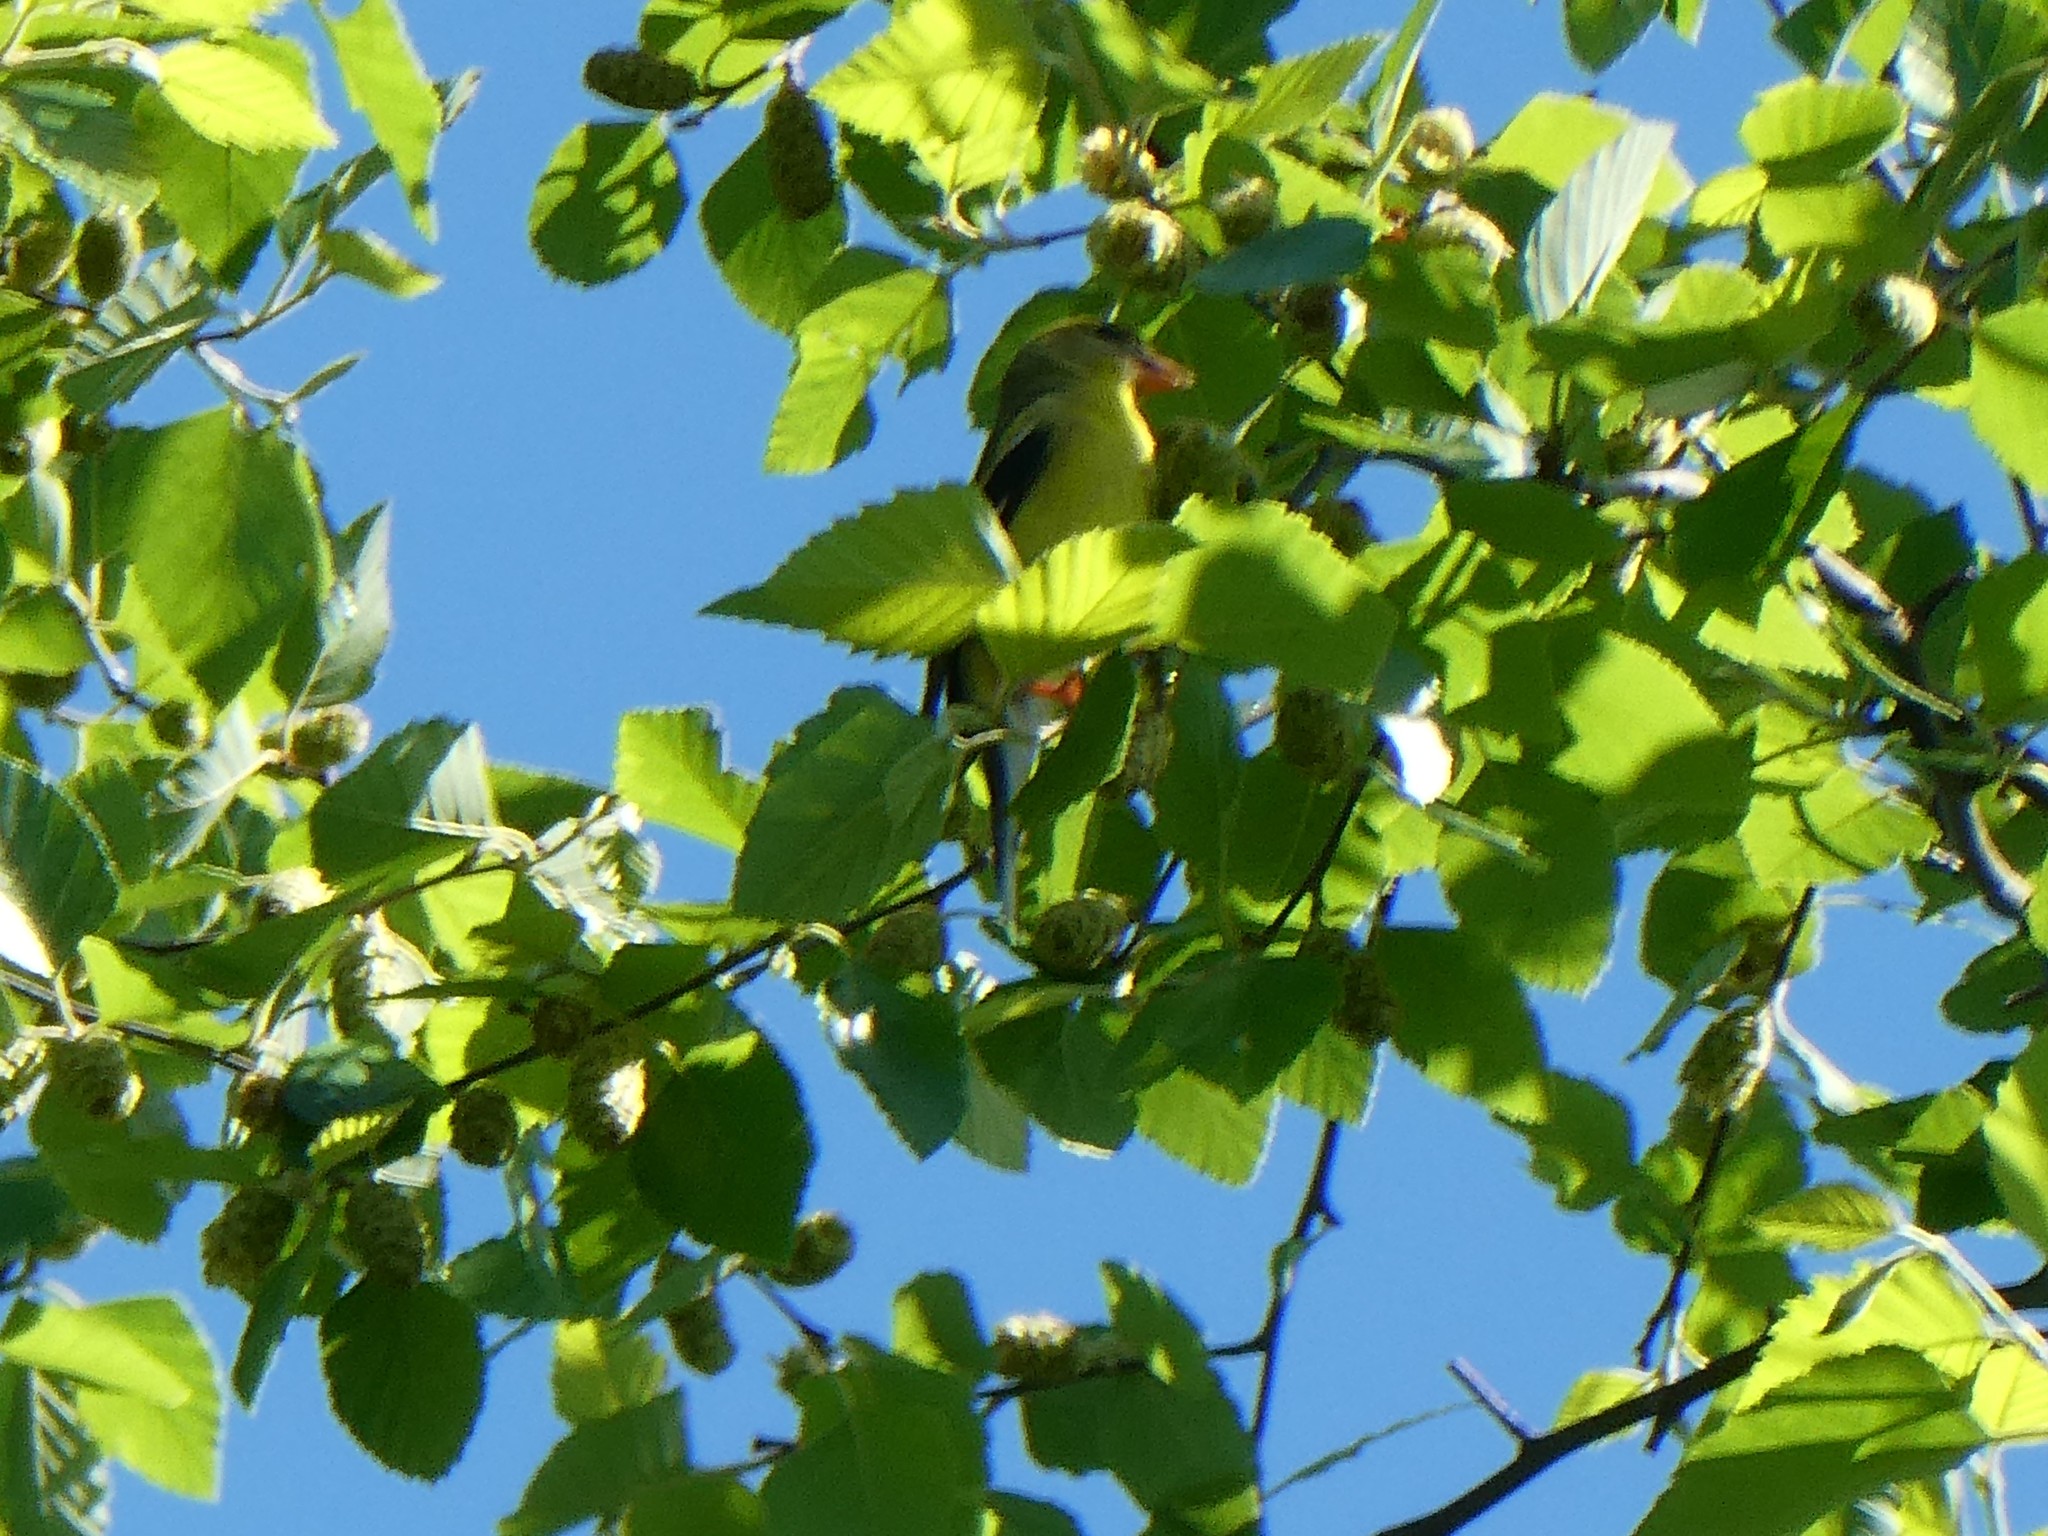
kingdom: Animalia
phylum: Chordata
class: Aves
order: Passeriformes
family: Fringillidae
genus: Spinus
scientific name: Spinus tristis
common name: American goldfinch
